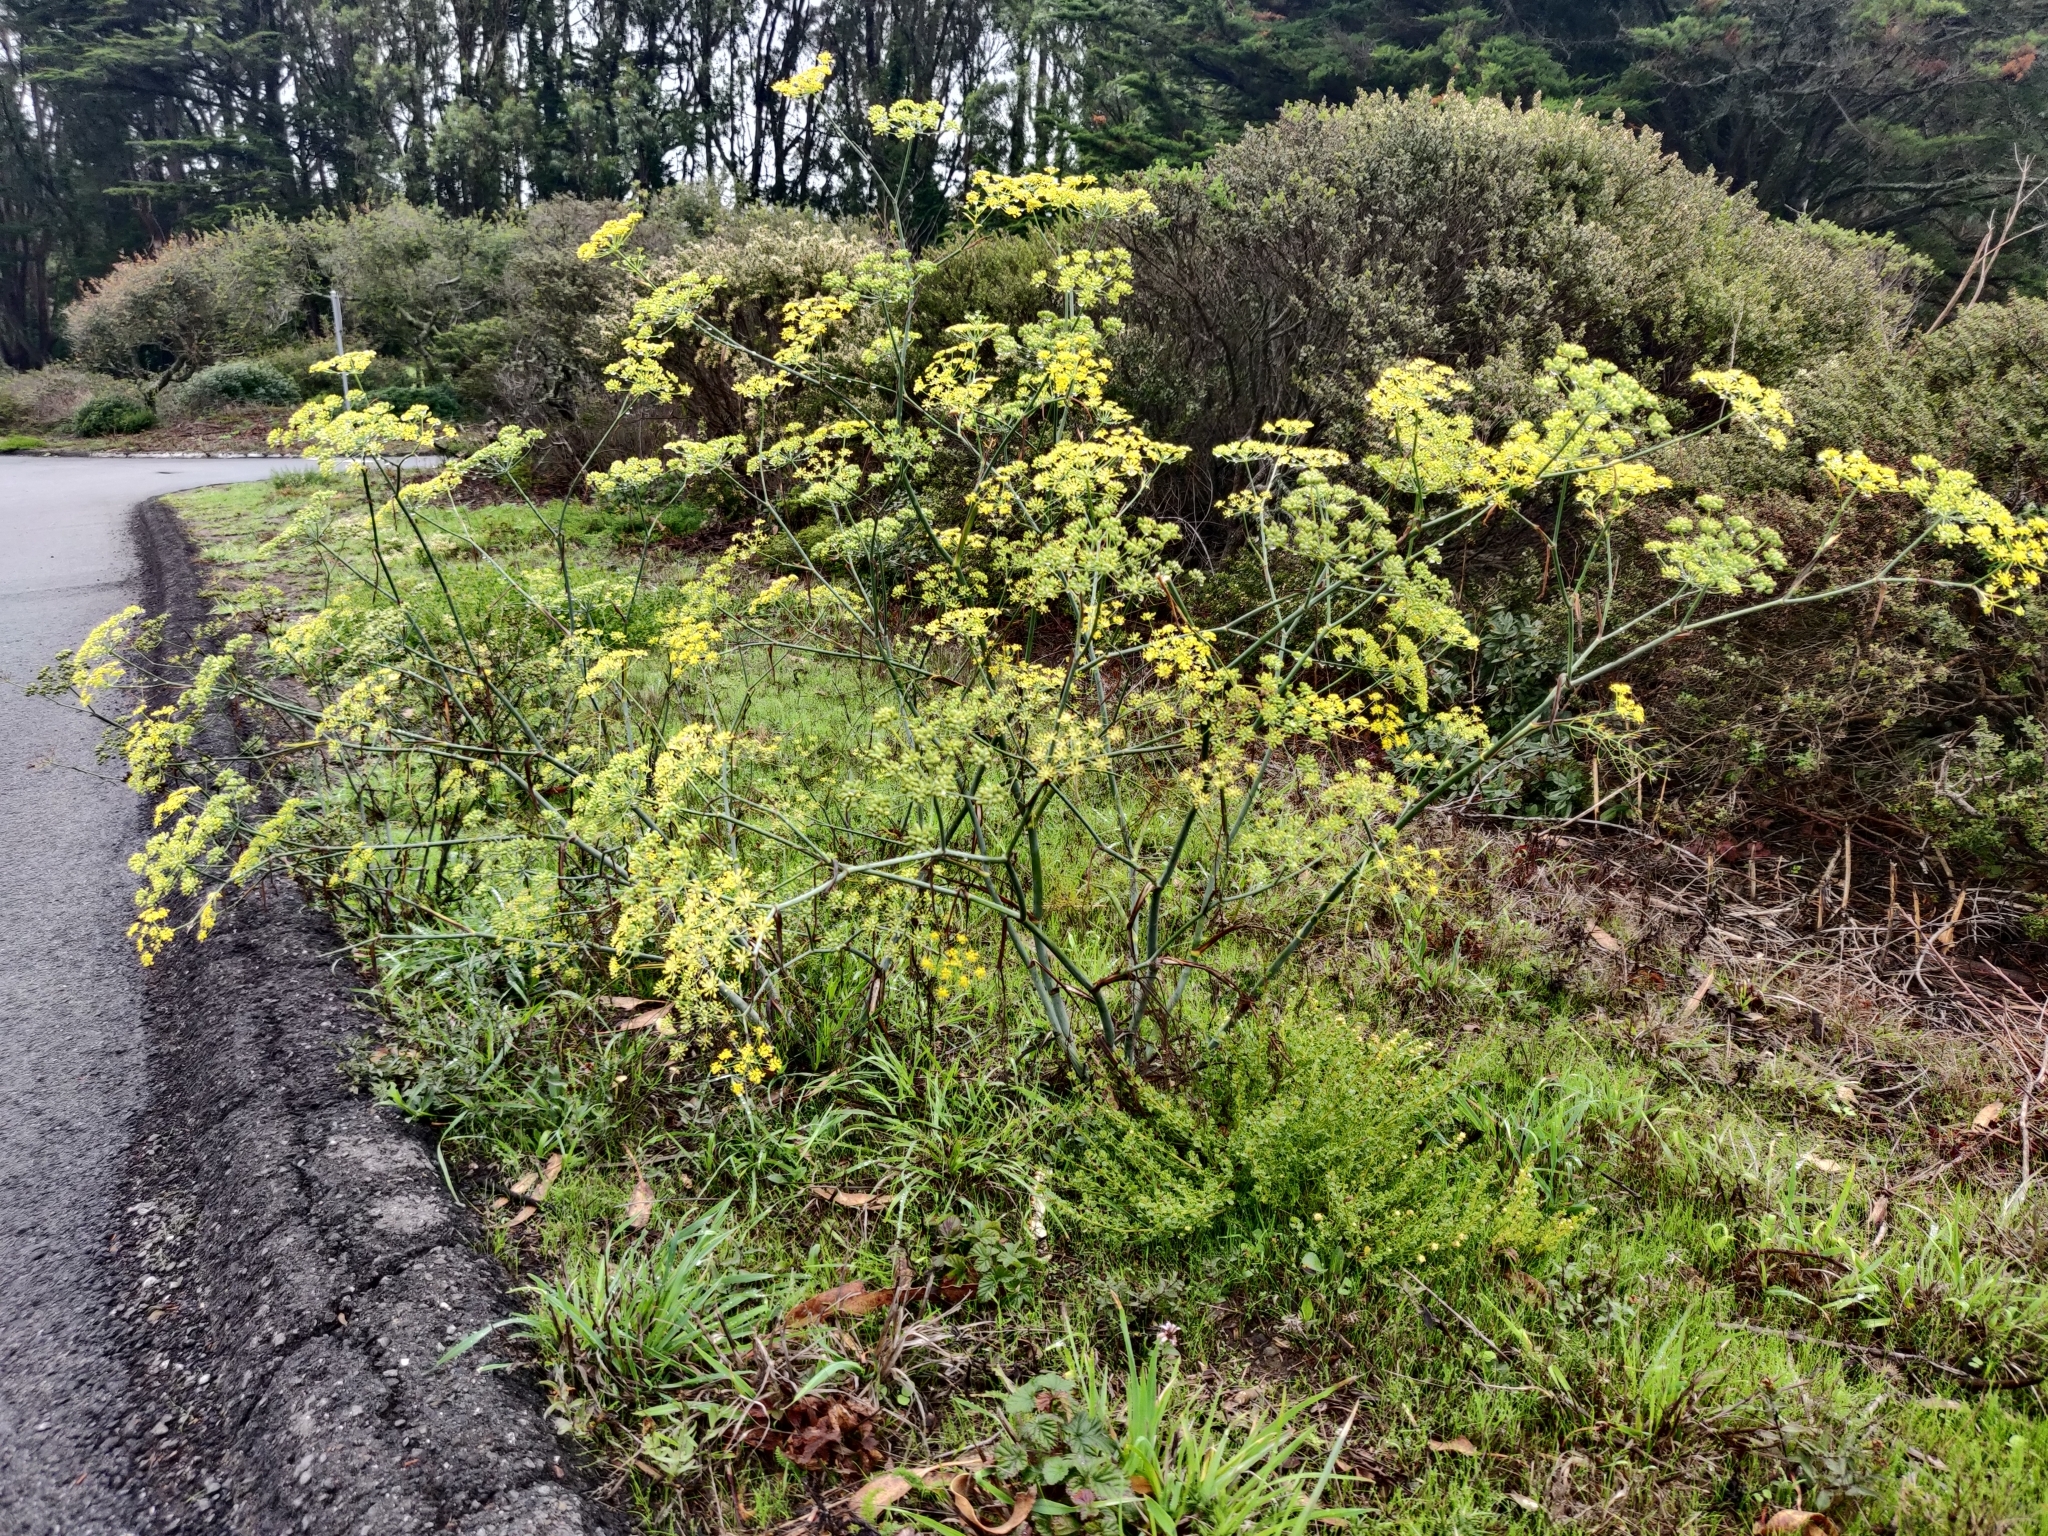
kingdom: Plantae
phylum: Tracheophyta
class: Magnoliopsida
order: Apiales
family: Apiaceae
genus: Foeniculum
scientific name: Foeniculum vulgare
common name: Fennel
